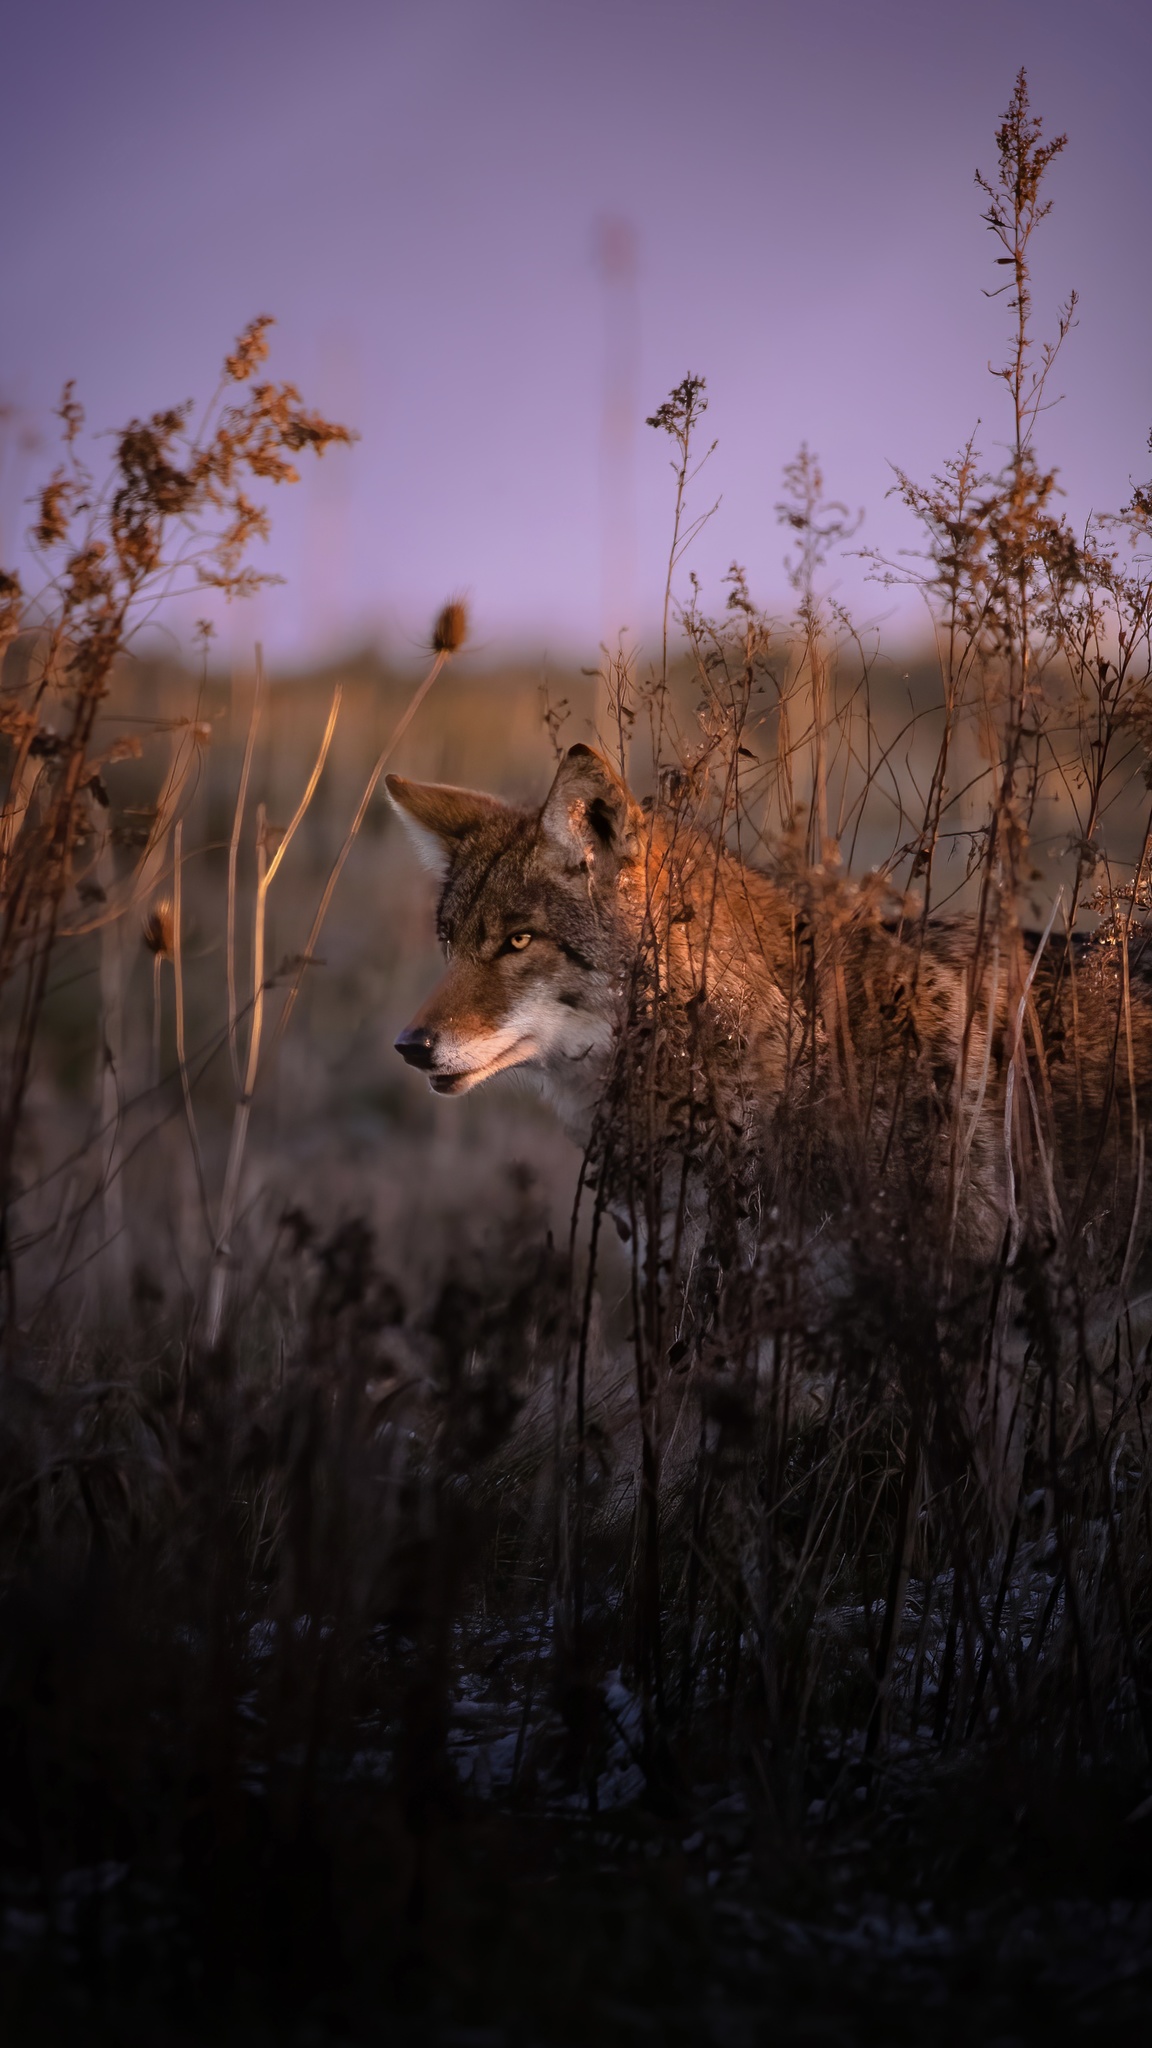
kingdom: Animalia
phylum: Chordata
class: Mammalia
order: Carnivora
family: Canidae
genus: Canis
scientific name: Canis latrans
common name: Coyote
